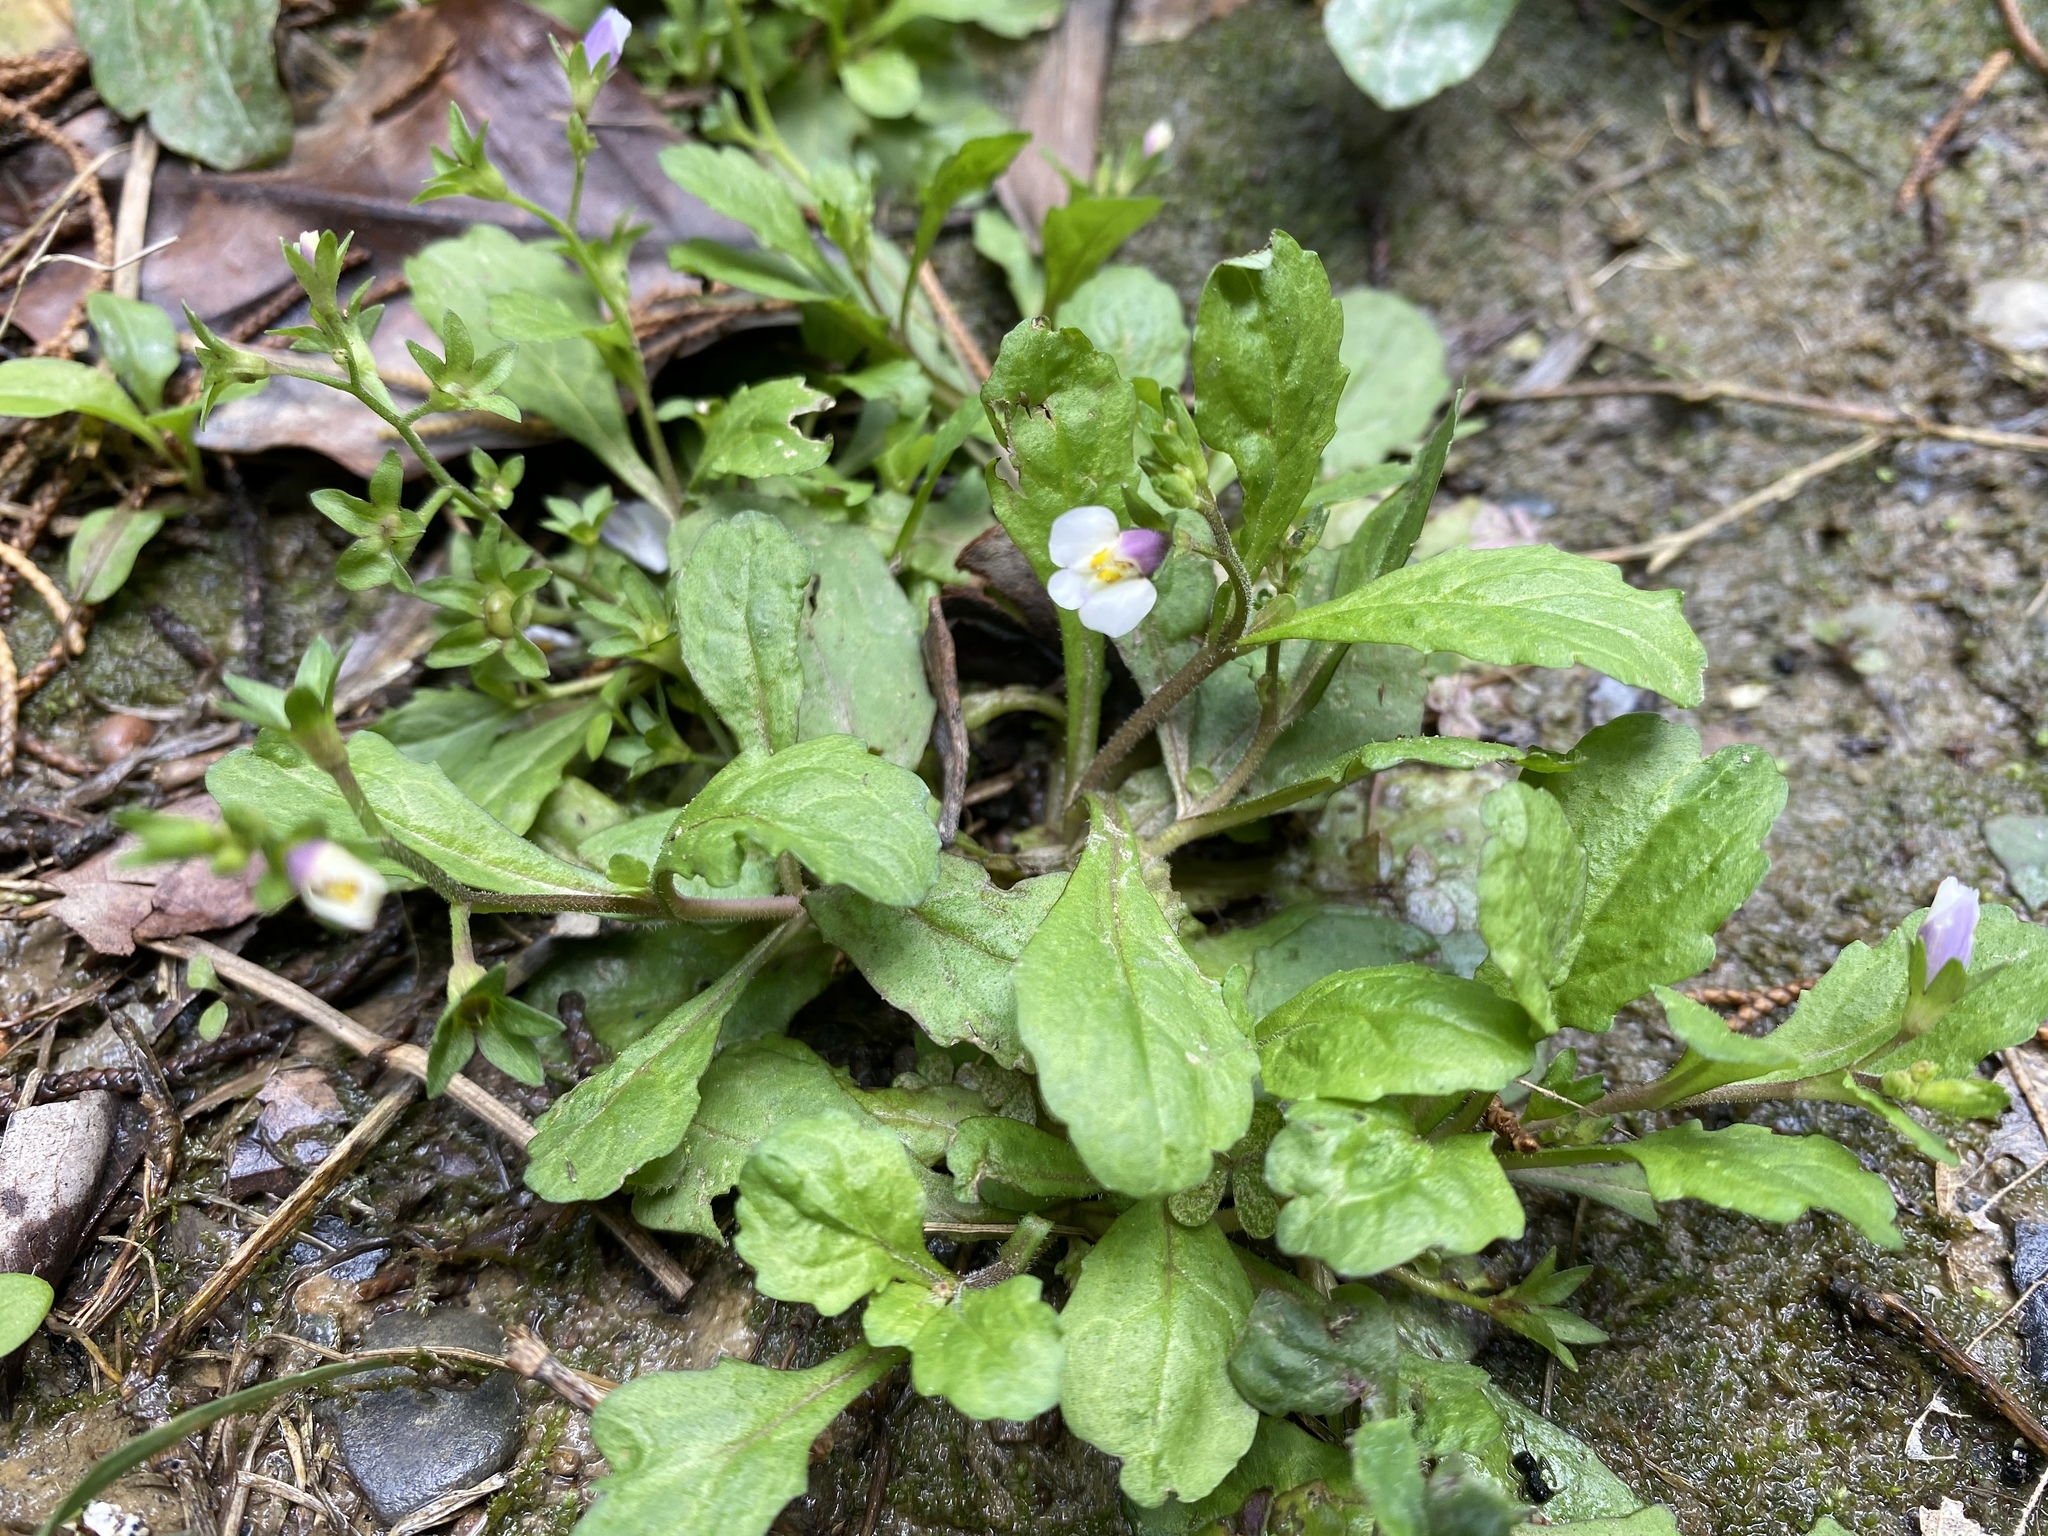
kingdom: Plantae
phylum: Tracheophyta
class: Magnoliopsida
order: Lamiales
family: Mazaceae
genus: Mazus
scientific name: Mazus pumilus
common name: Japanese mazus
